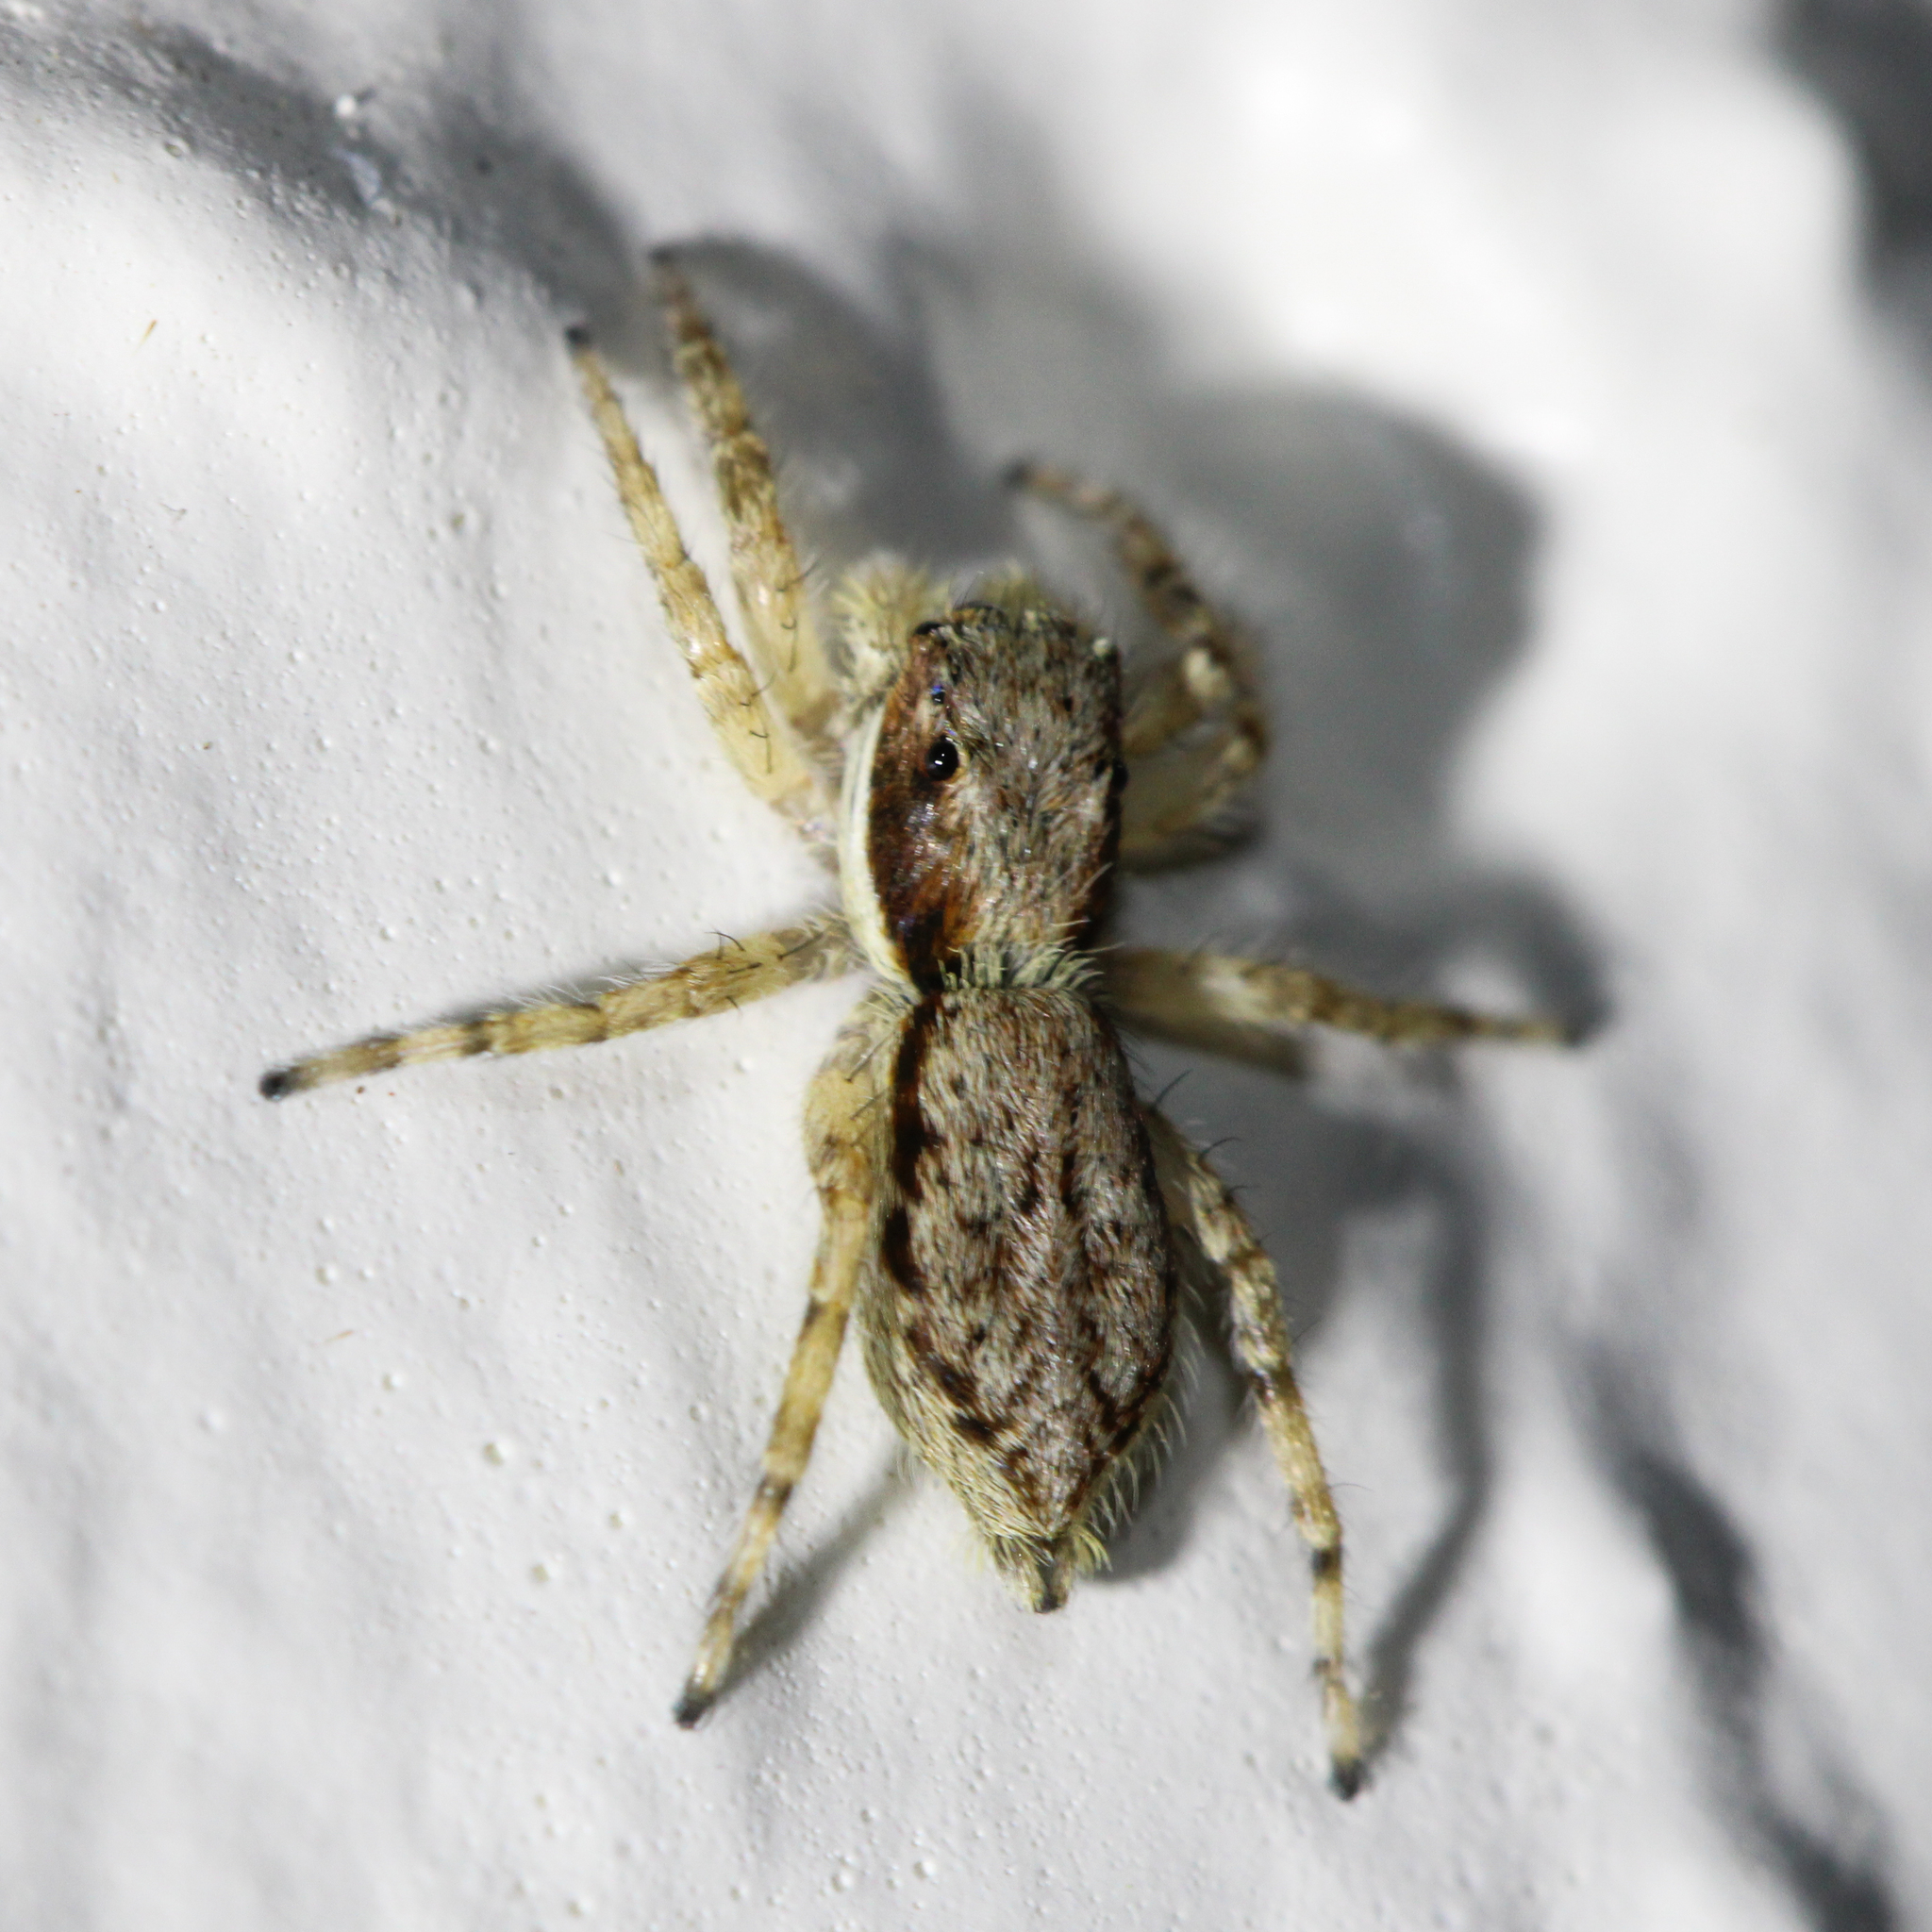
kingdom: Animalia
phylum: Arthropoda
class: Arachnida
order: Araneae
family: Salticidae
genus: Menemerus
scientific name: Menemerus bivittatus
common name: Gray wall jumper
